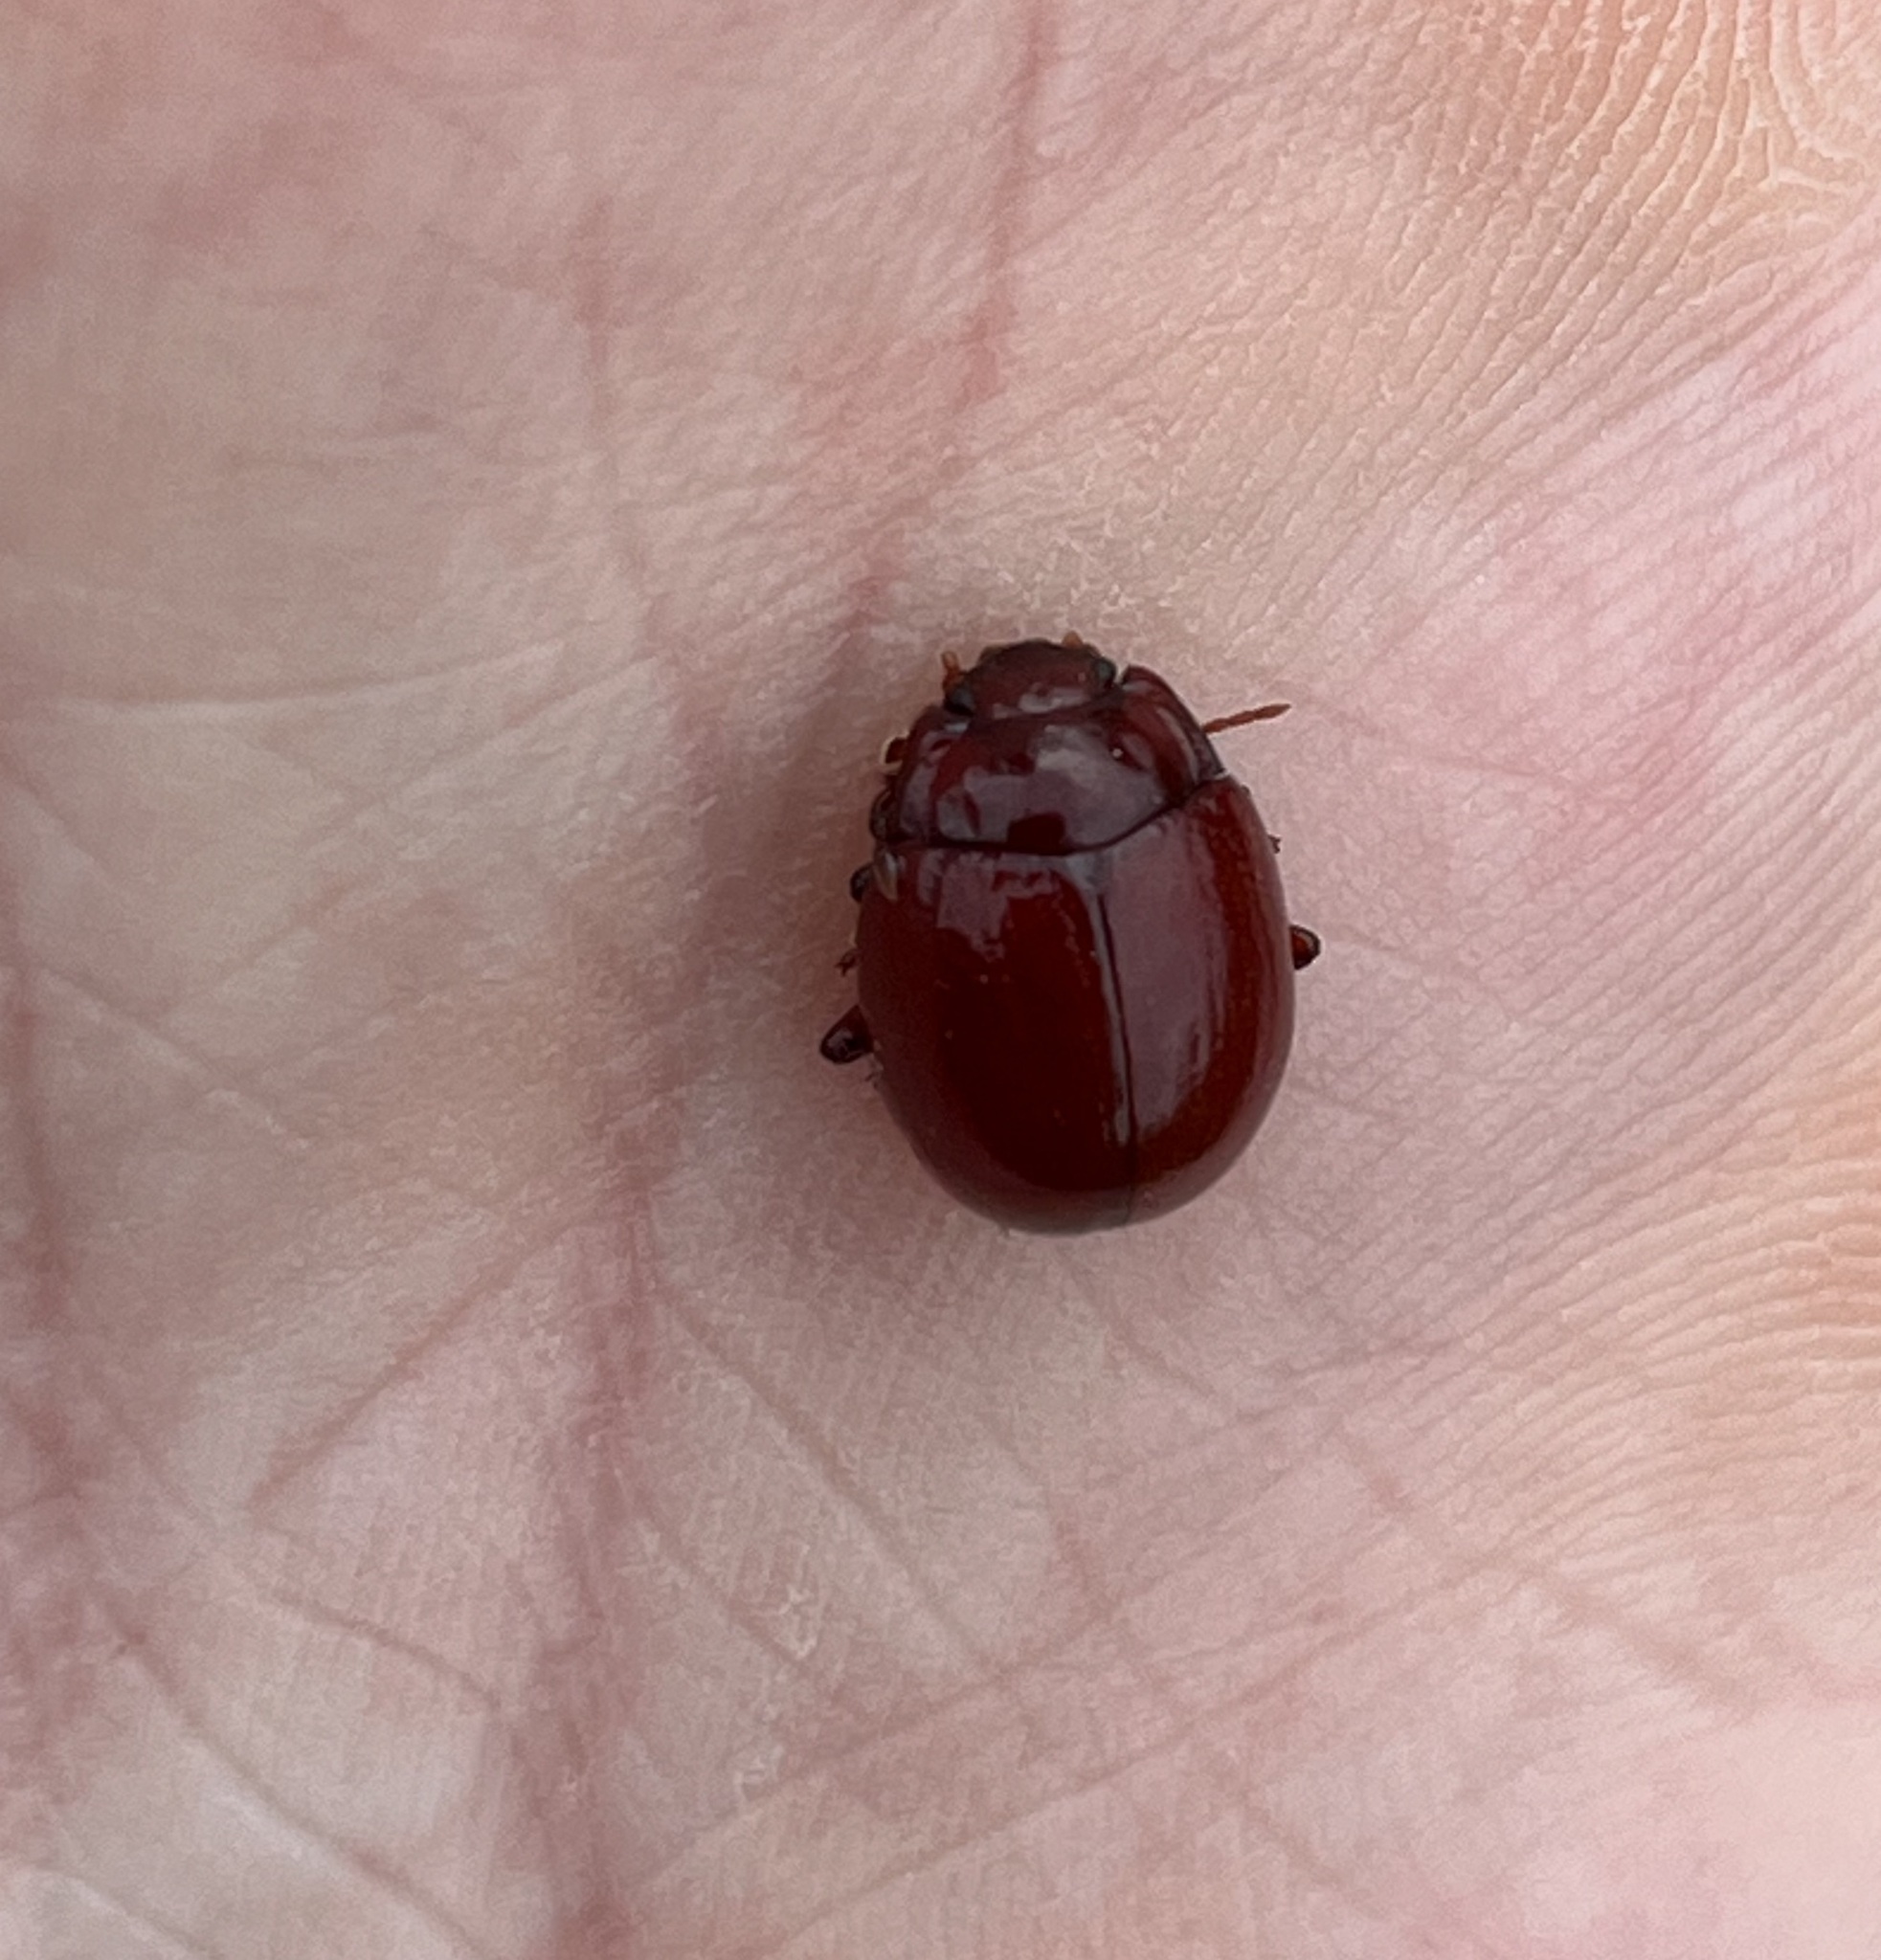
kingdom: Animalia
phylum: Arthropoda
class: Insecta
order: Coleoptera
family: Chrysomelidae
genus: Chrysolina
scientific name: Chrysolina
